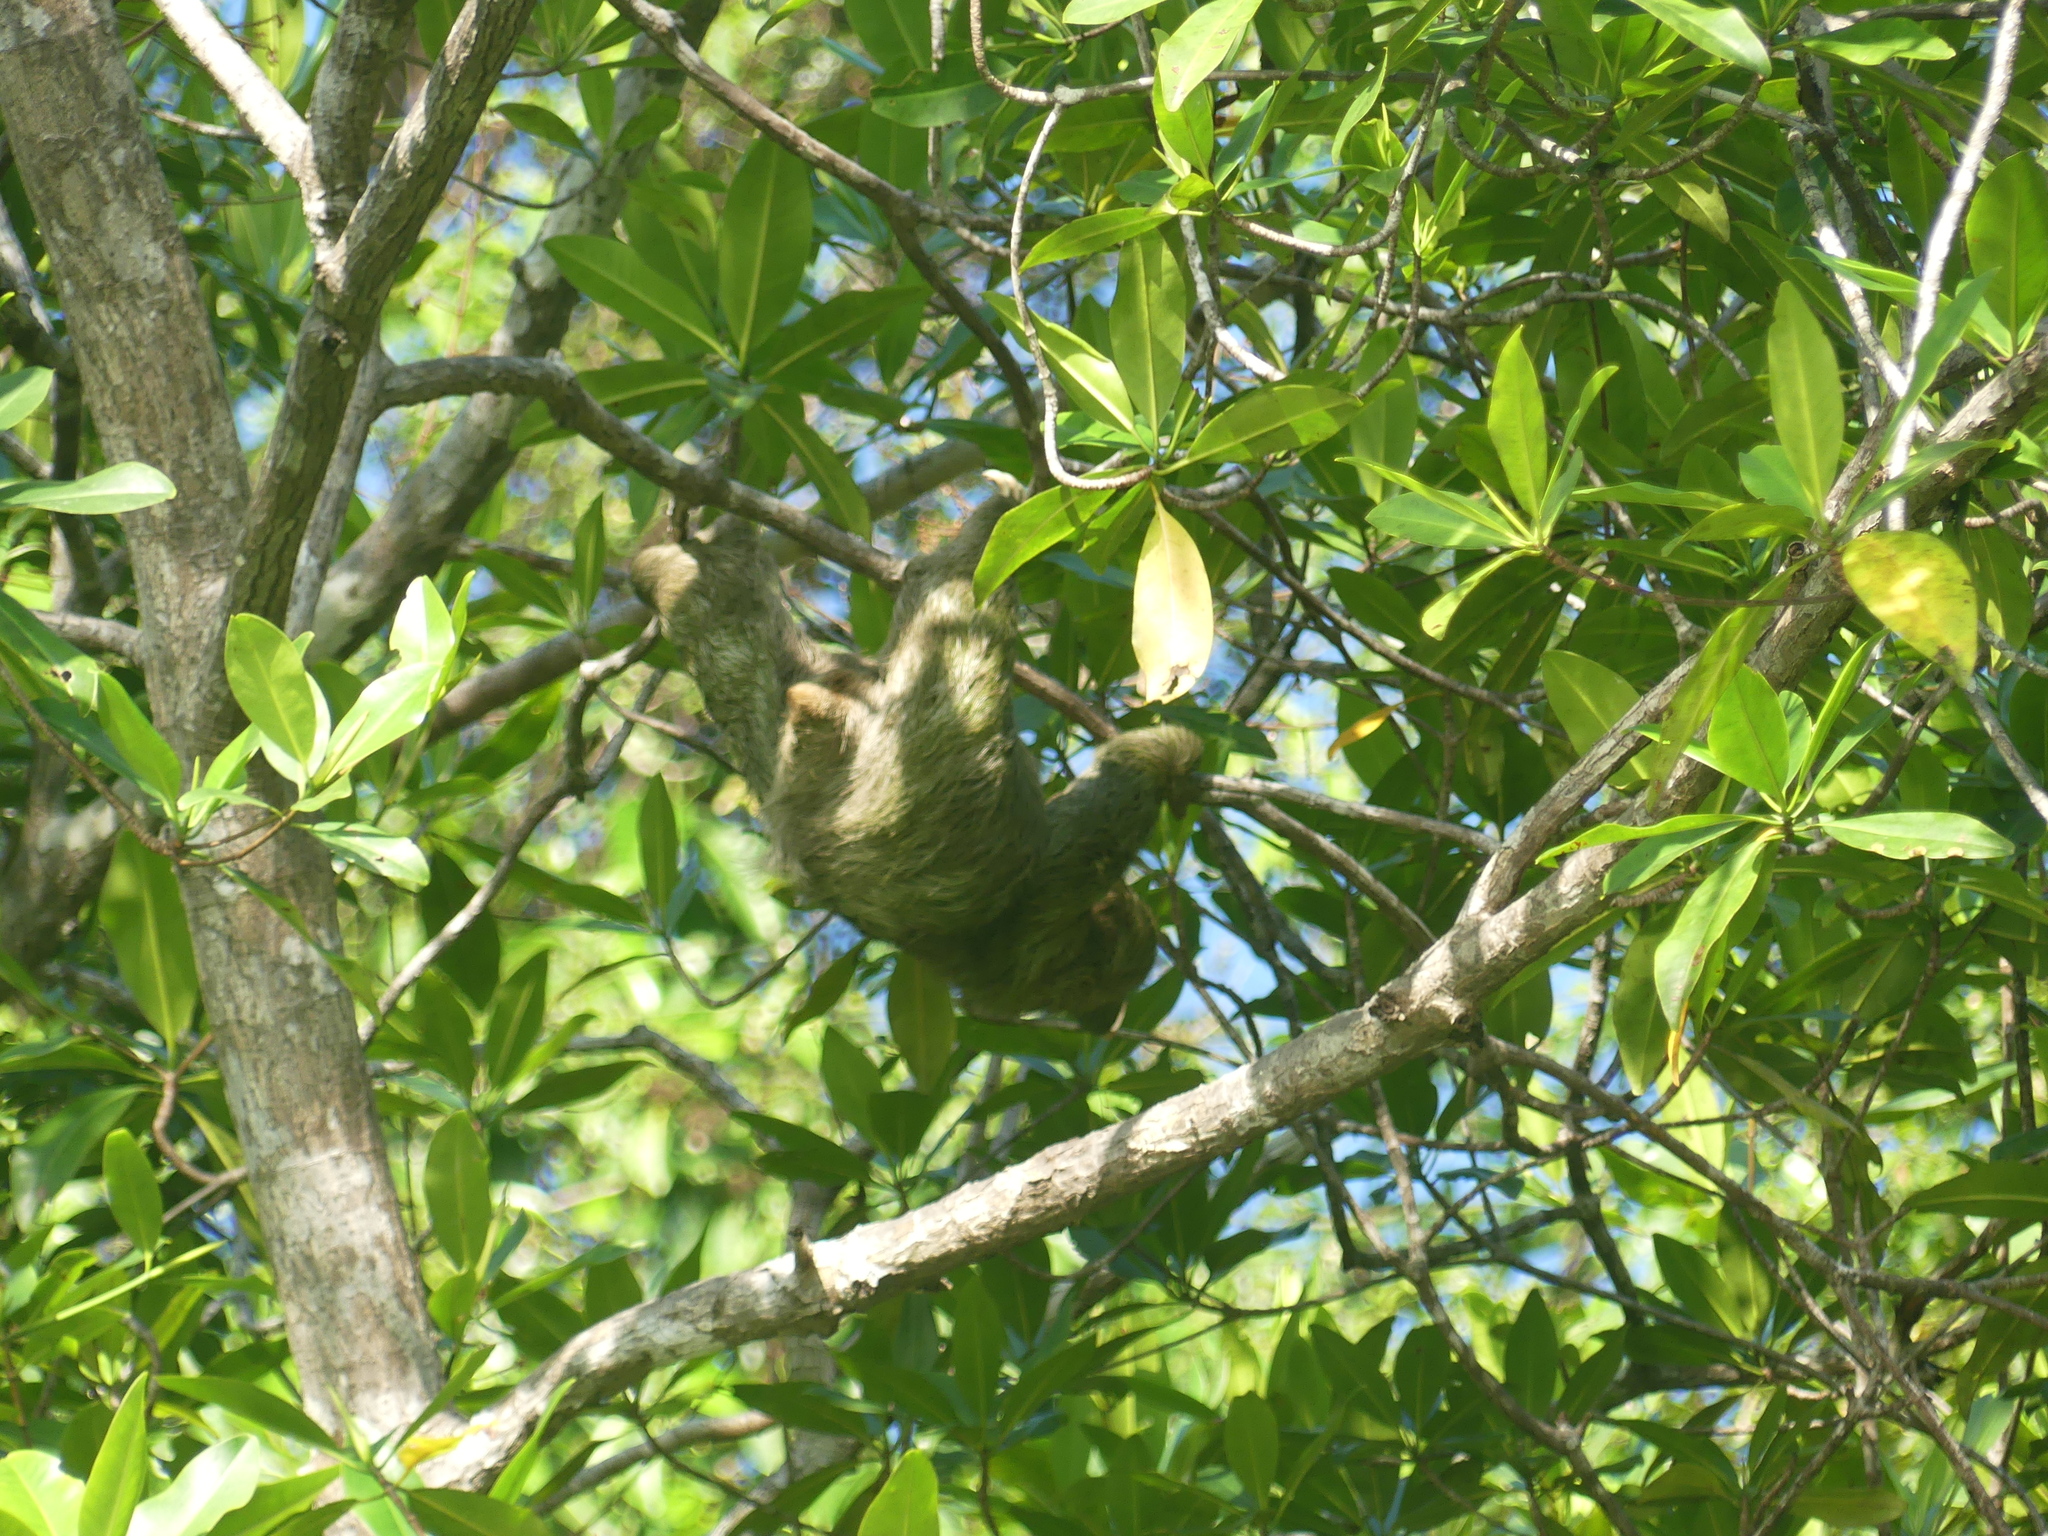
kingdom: Animalia
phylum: Chordata
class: Mammalia
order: Pilosa
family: Bradypodidae
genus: Bradypus
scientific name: Bradypus variegatus
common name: Brown-throated three-toed sloth
